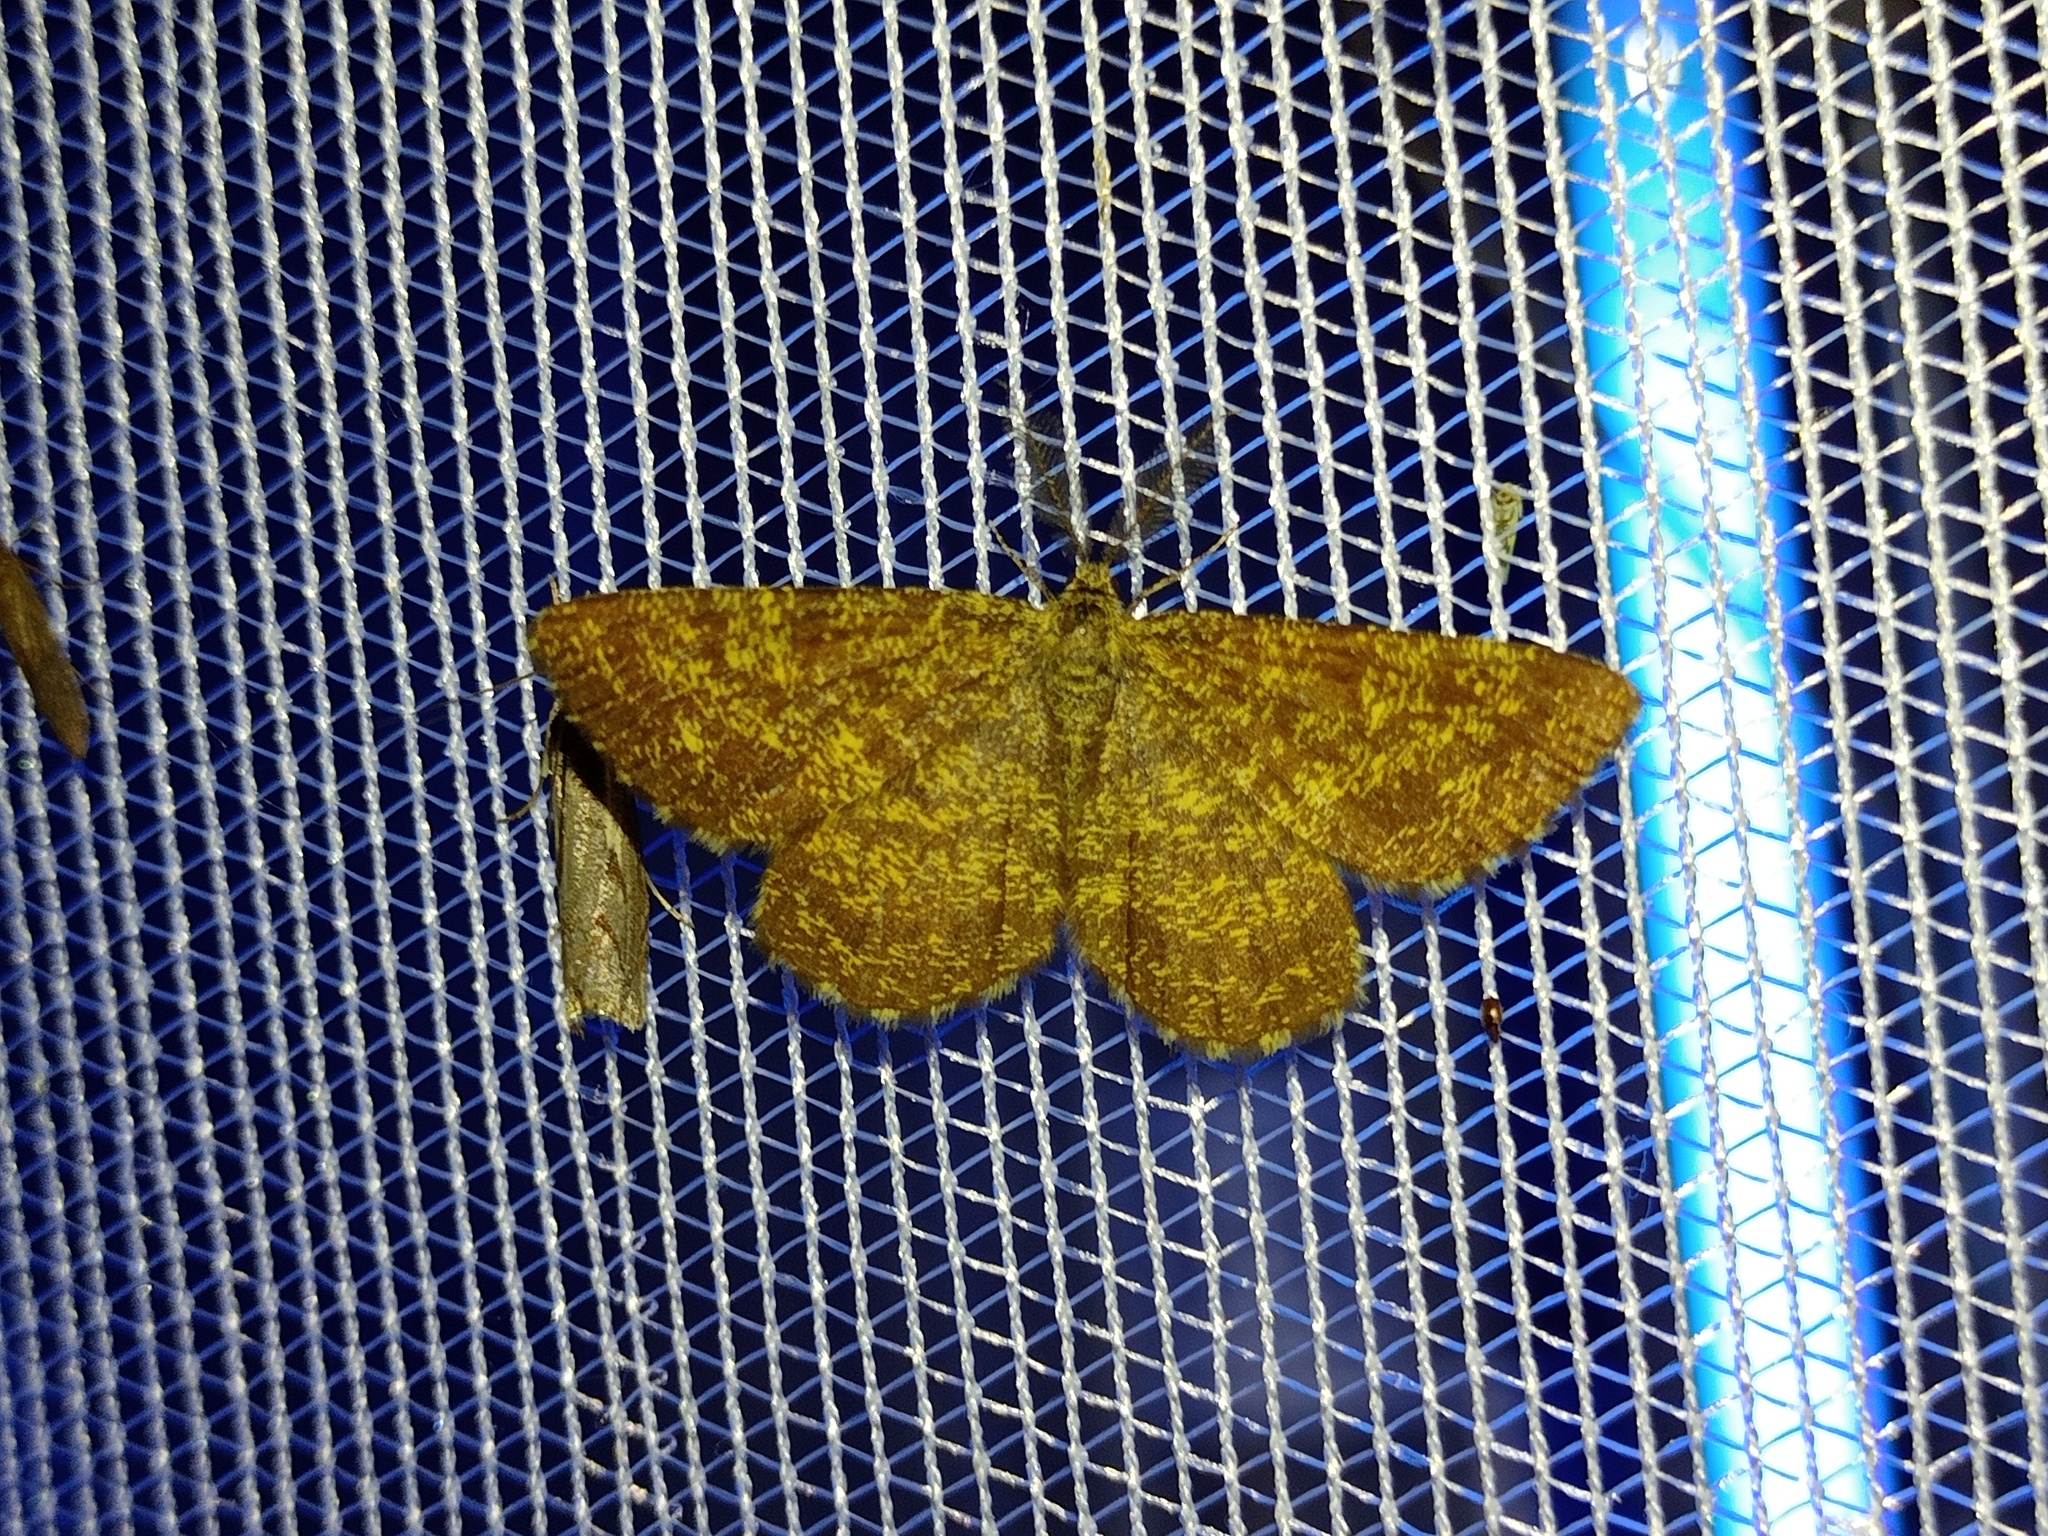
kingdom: Animalia
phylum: Arthropoda
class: Insecta
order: Lepidoptera
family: Geometridae
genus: Ematurga
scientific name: Ematurga atomaria
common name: Common heath
